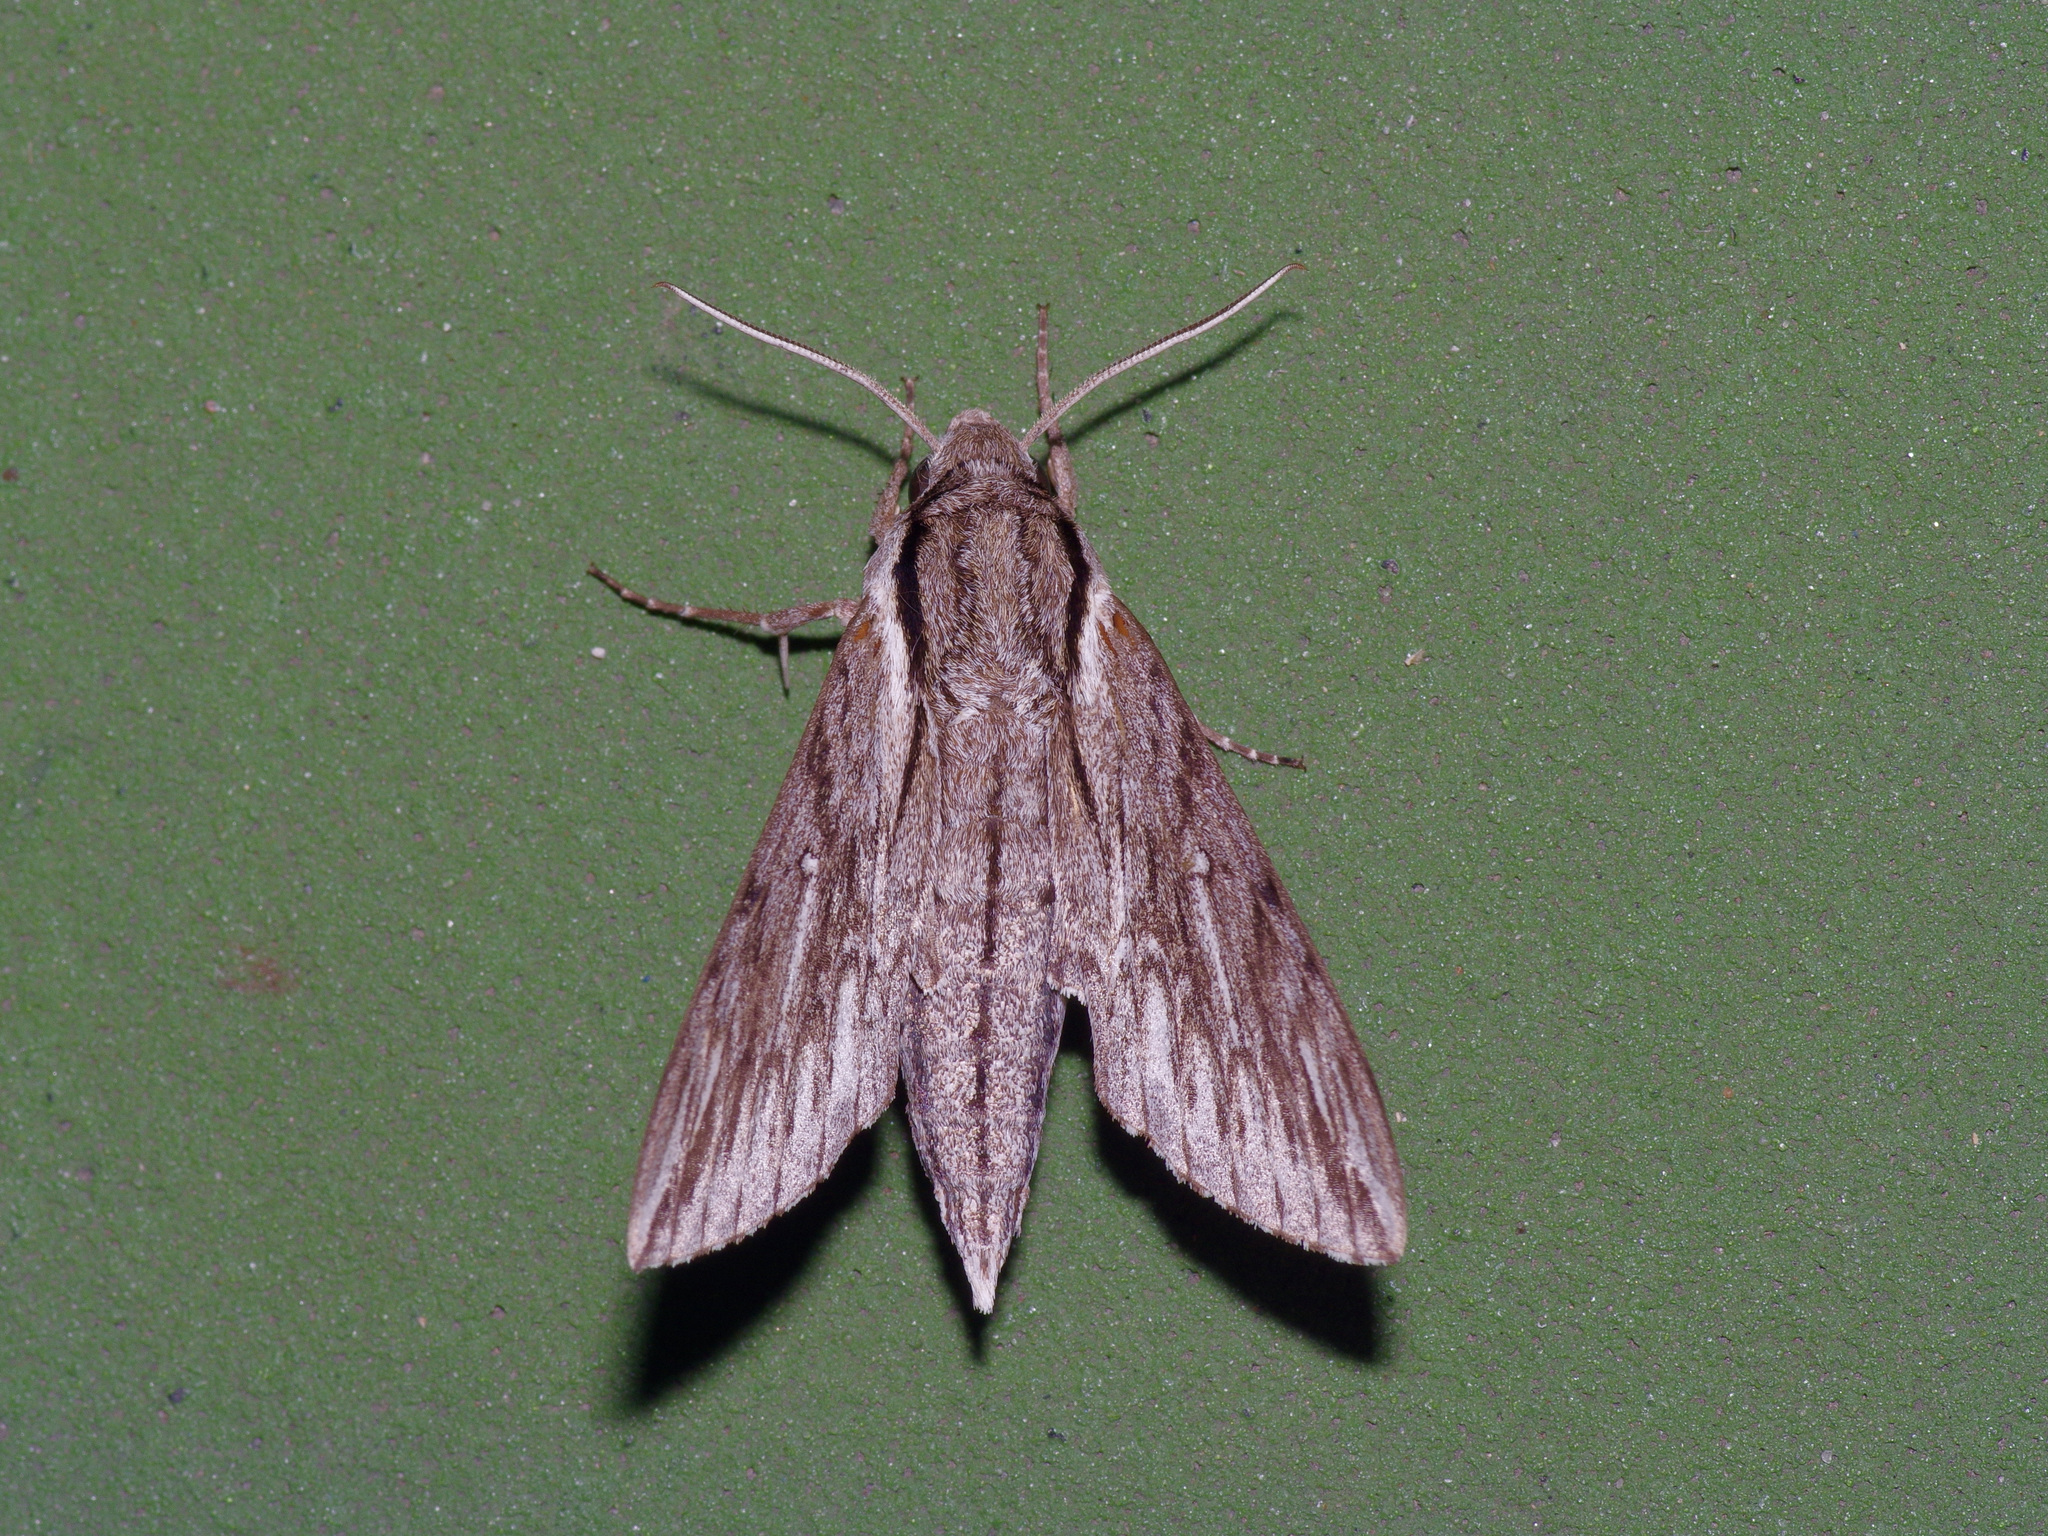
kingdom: Animalia
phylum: Arthropoda
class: Insecta
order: Lepidoptera
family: Sphingidae
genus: Paratrea
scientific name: Paratrea plebeja
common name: Plebian sphinx
